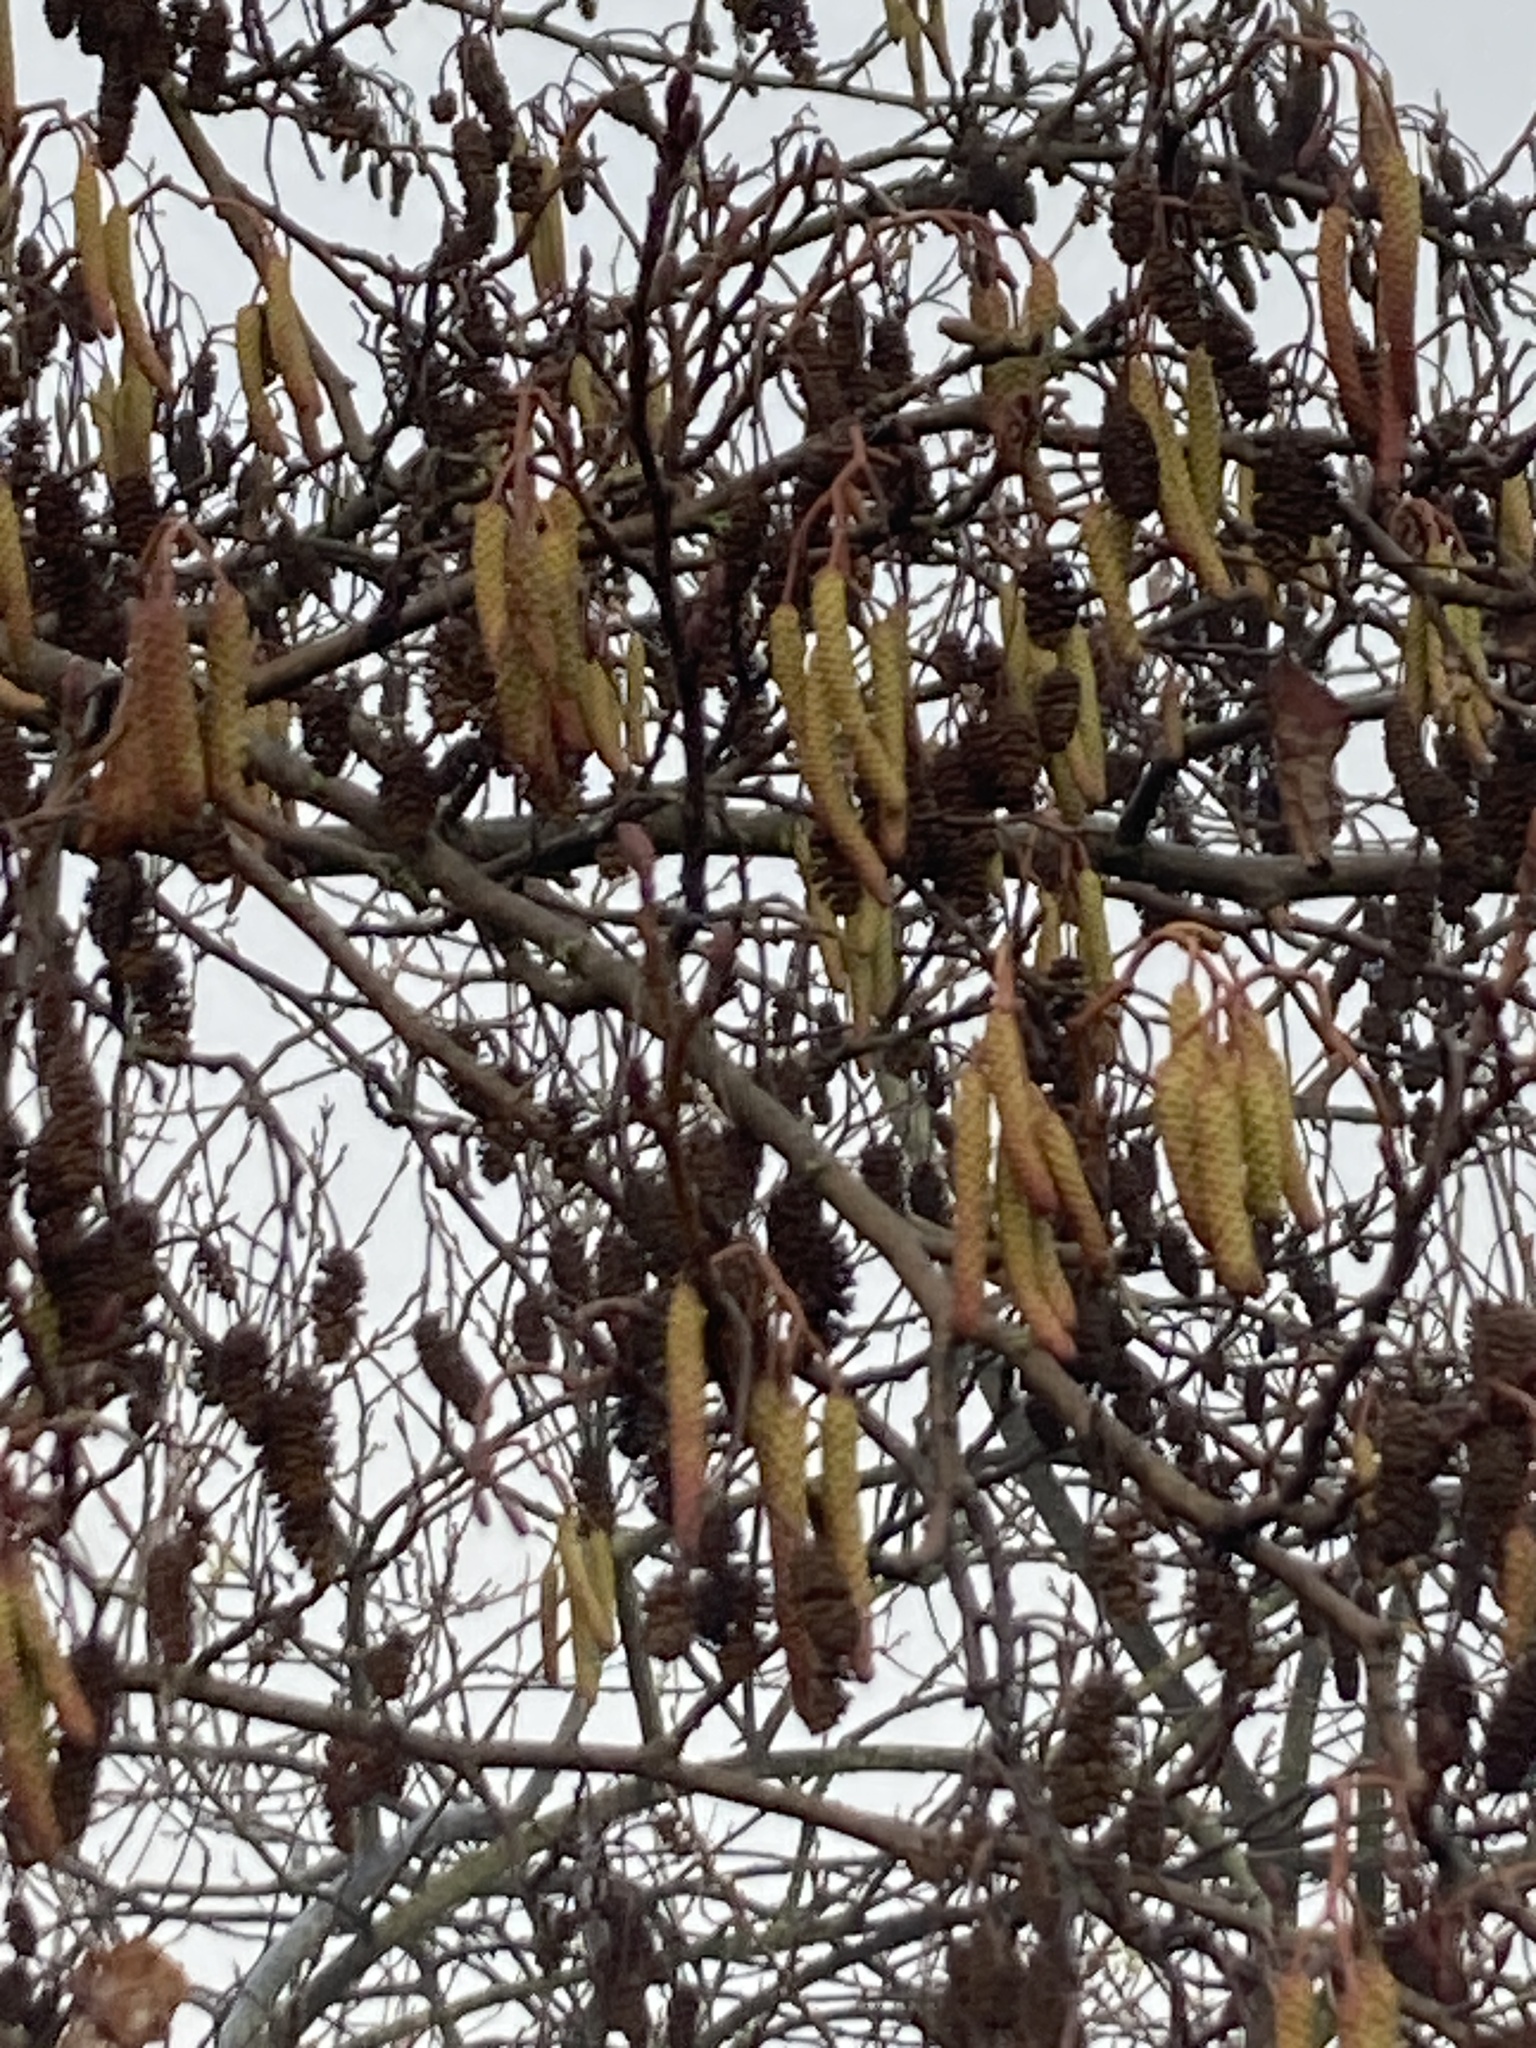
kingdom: Plantae
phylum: Tracheophyta
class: Magnoliopsida
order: Fagales
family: Betulaceae
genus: Alnus
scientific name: Alnus glutinosa
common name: Black alder
